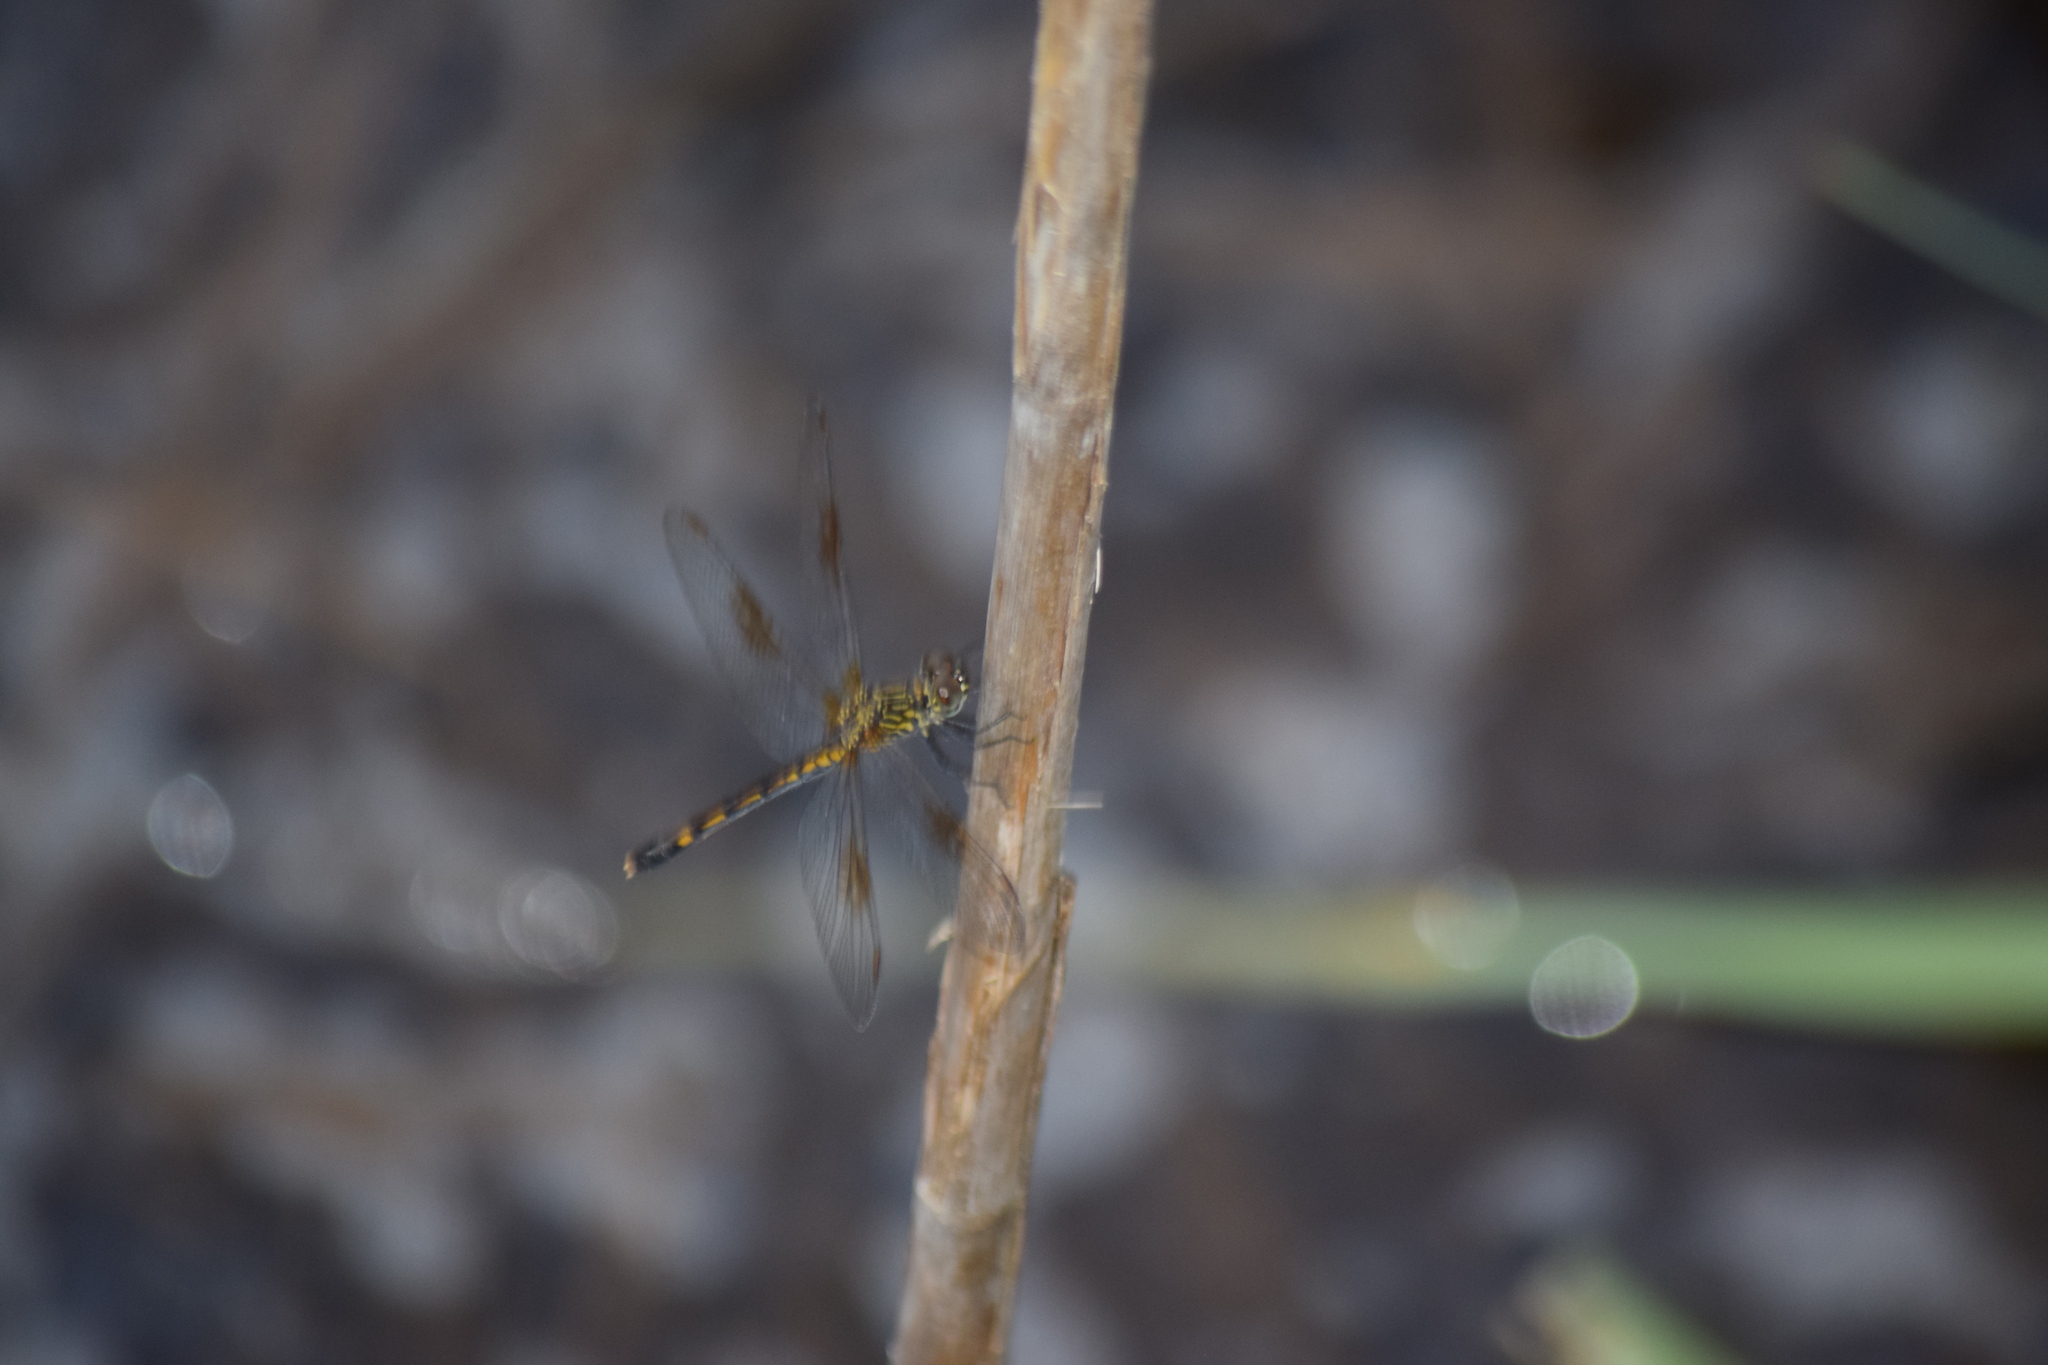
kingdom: Animalia
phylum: Arthropoda
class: Insecta
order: Odonata
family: Libellulidae
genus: Erythrodiplax
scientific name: Erythrodiplax berenice
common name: Seaside dragonlet
